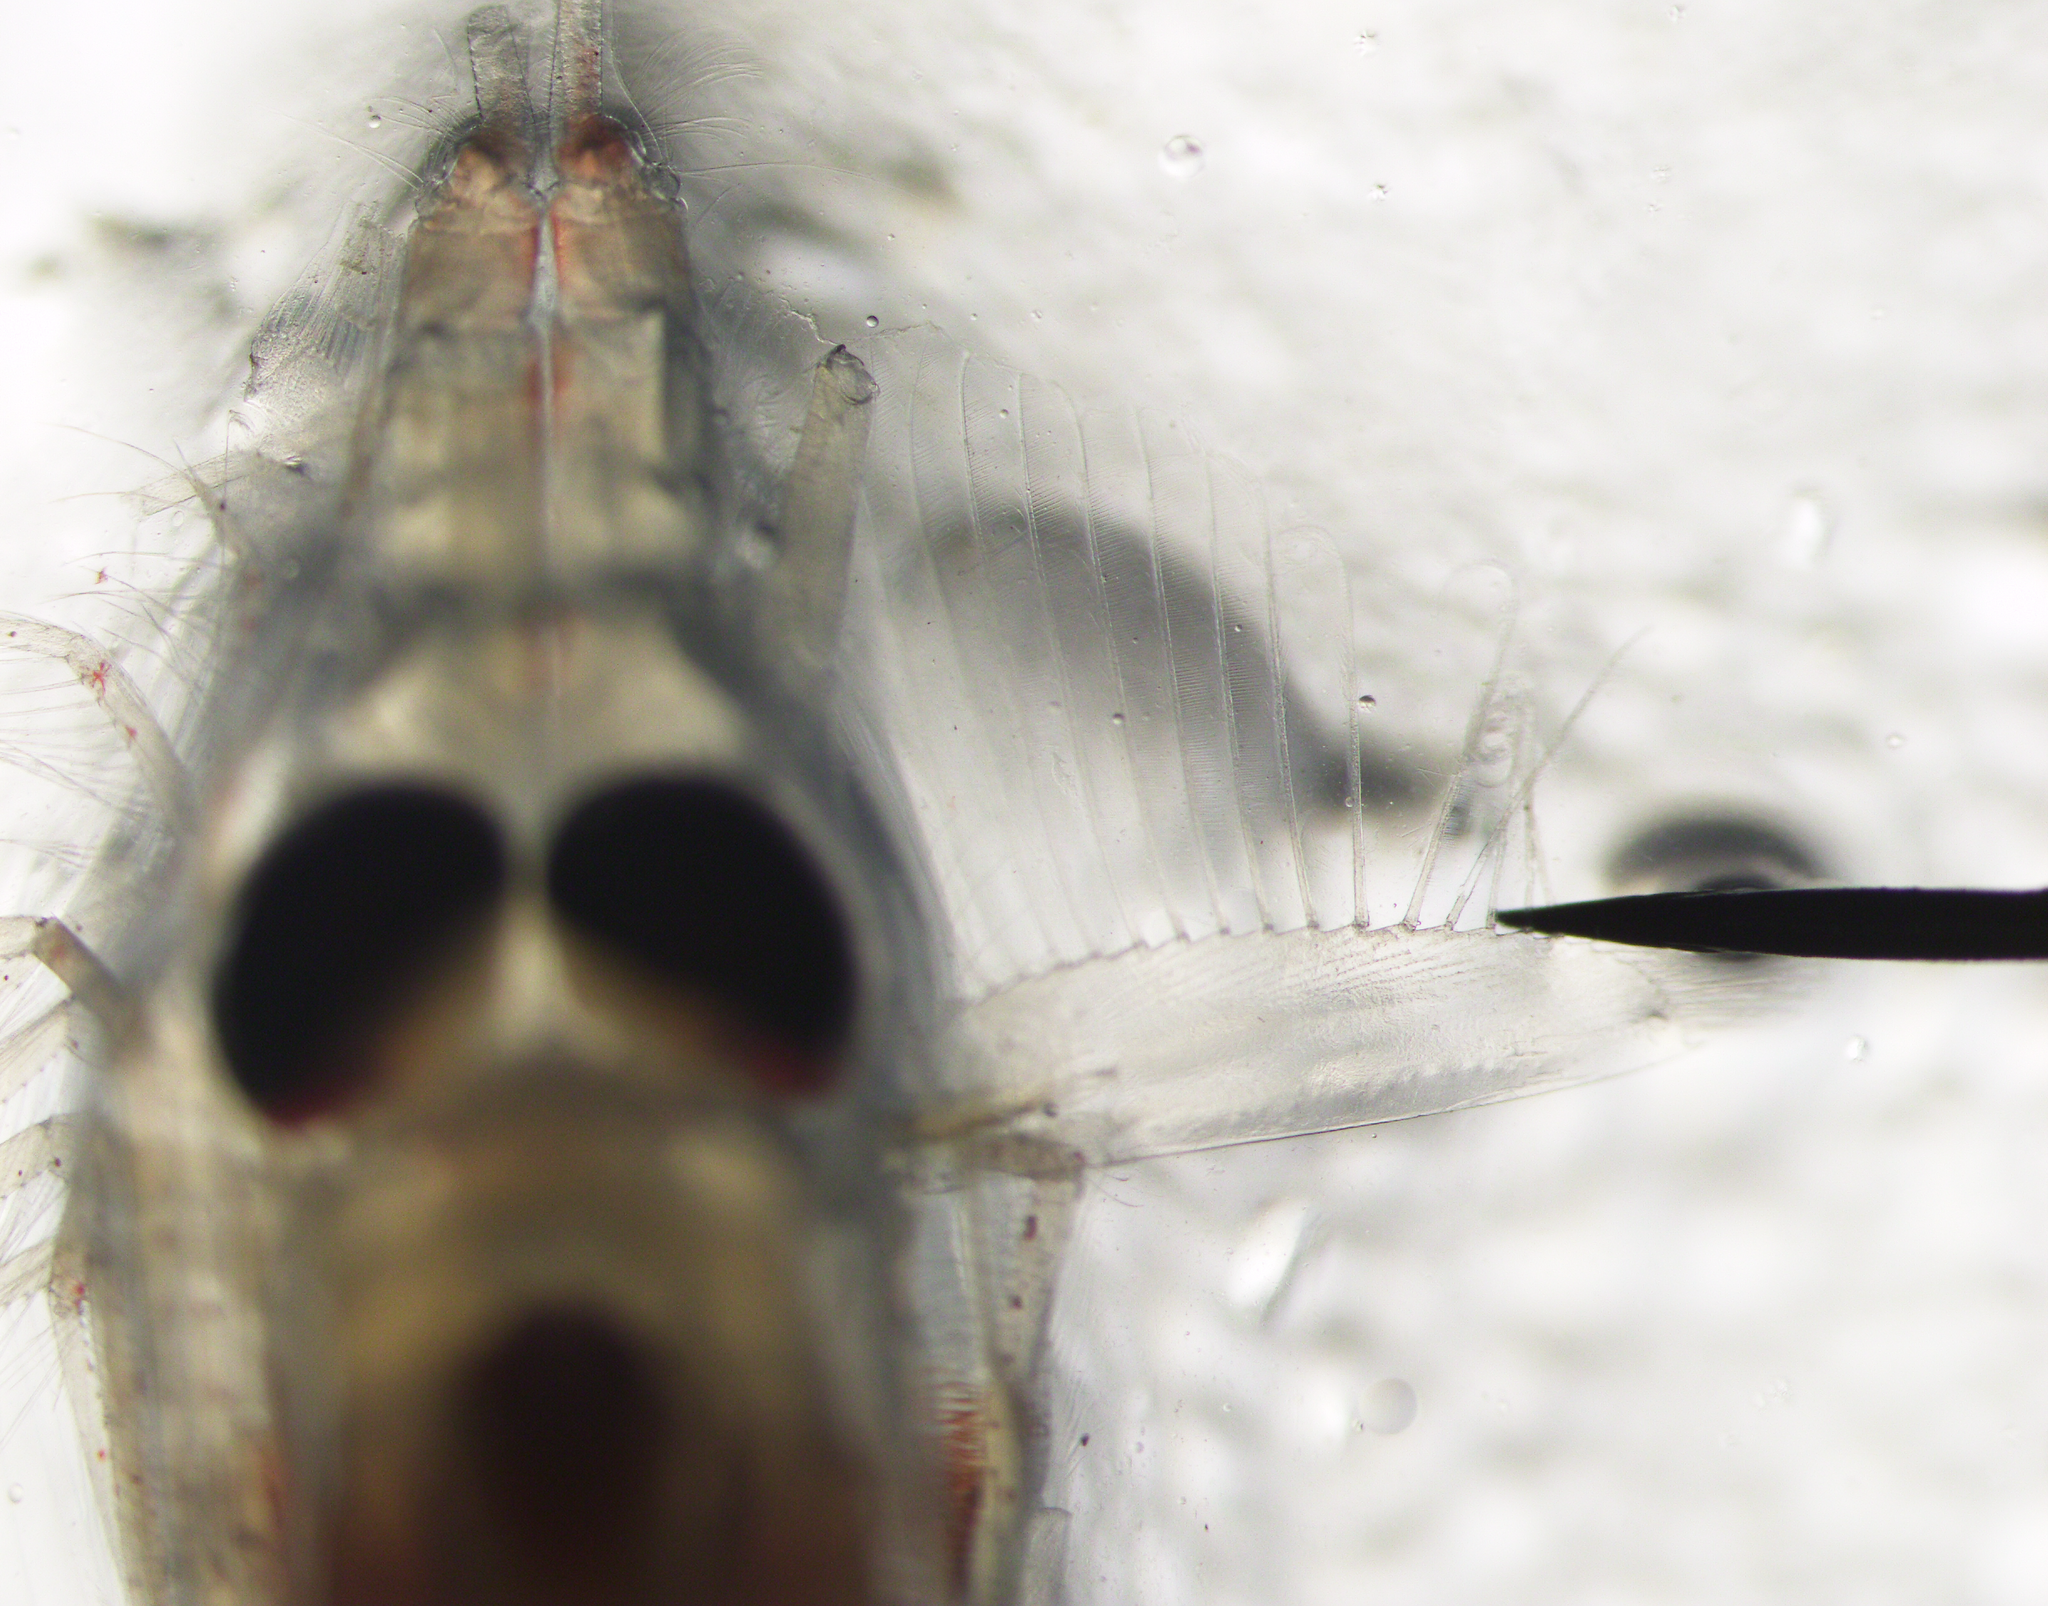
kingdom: Animalia
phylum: Arthropoda
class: Malacostraca
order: Euphausiacea
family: Euphausiidae
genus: Meganyctiphanes
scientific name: Meganyctiphanes norvegica
